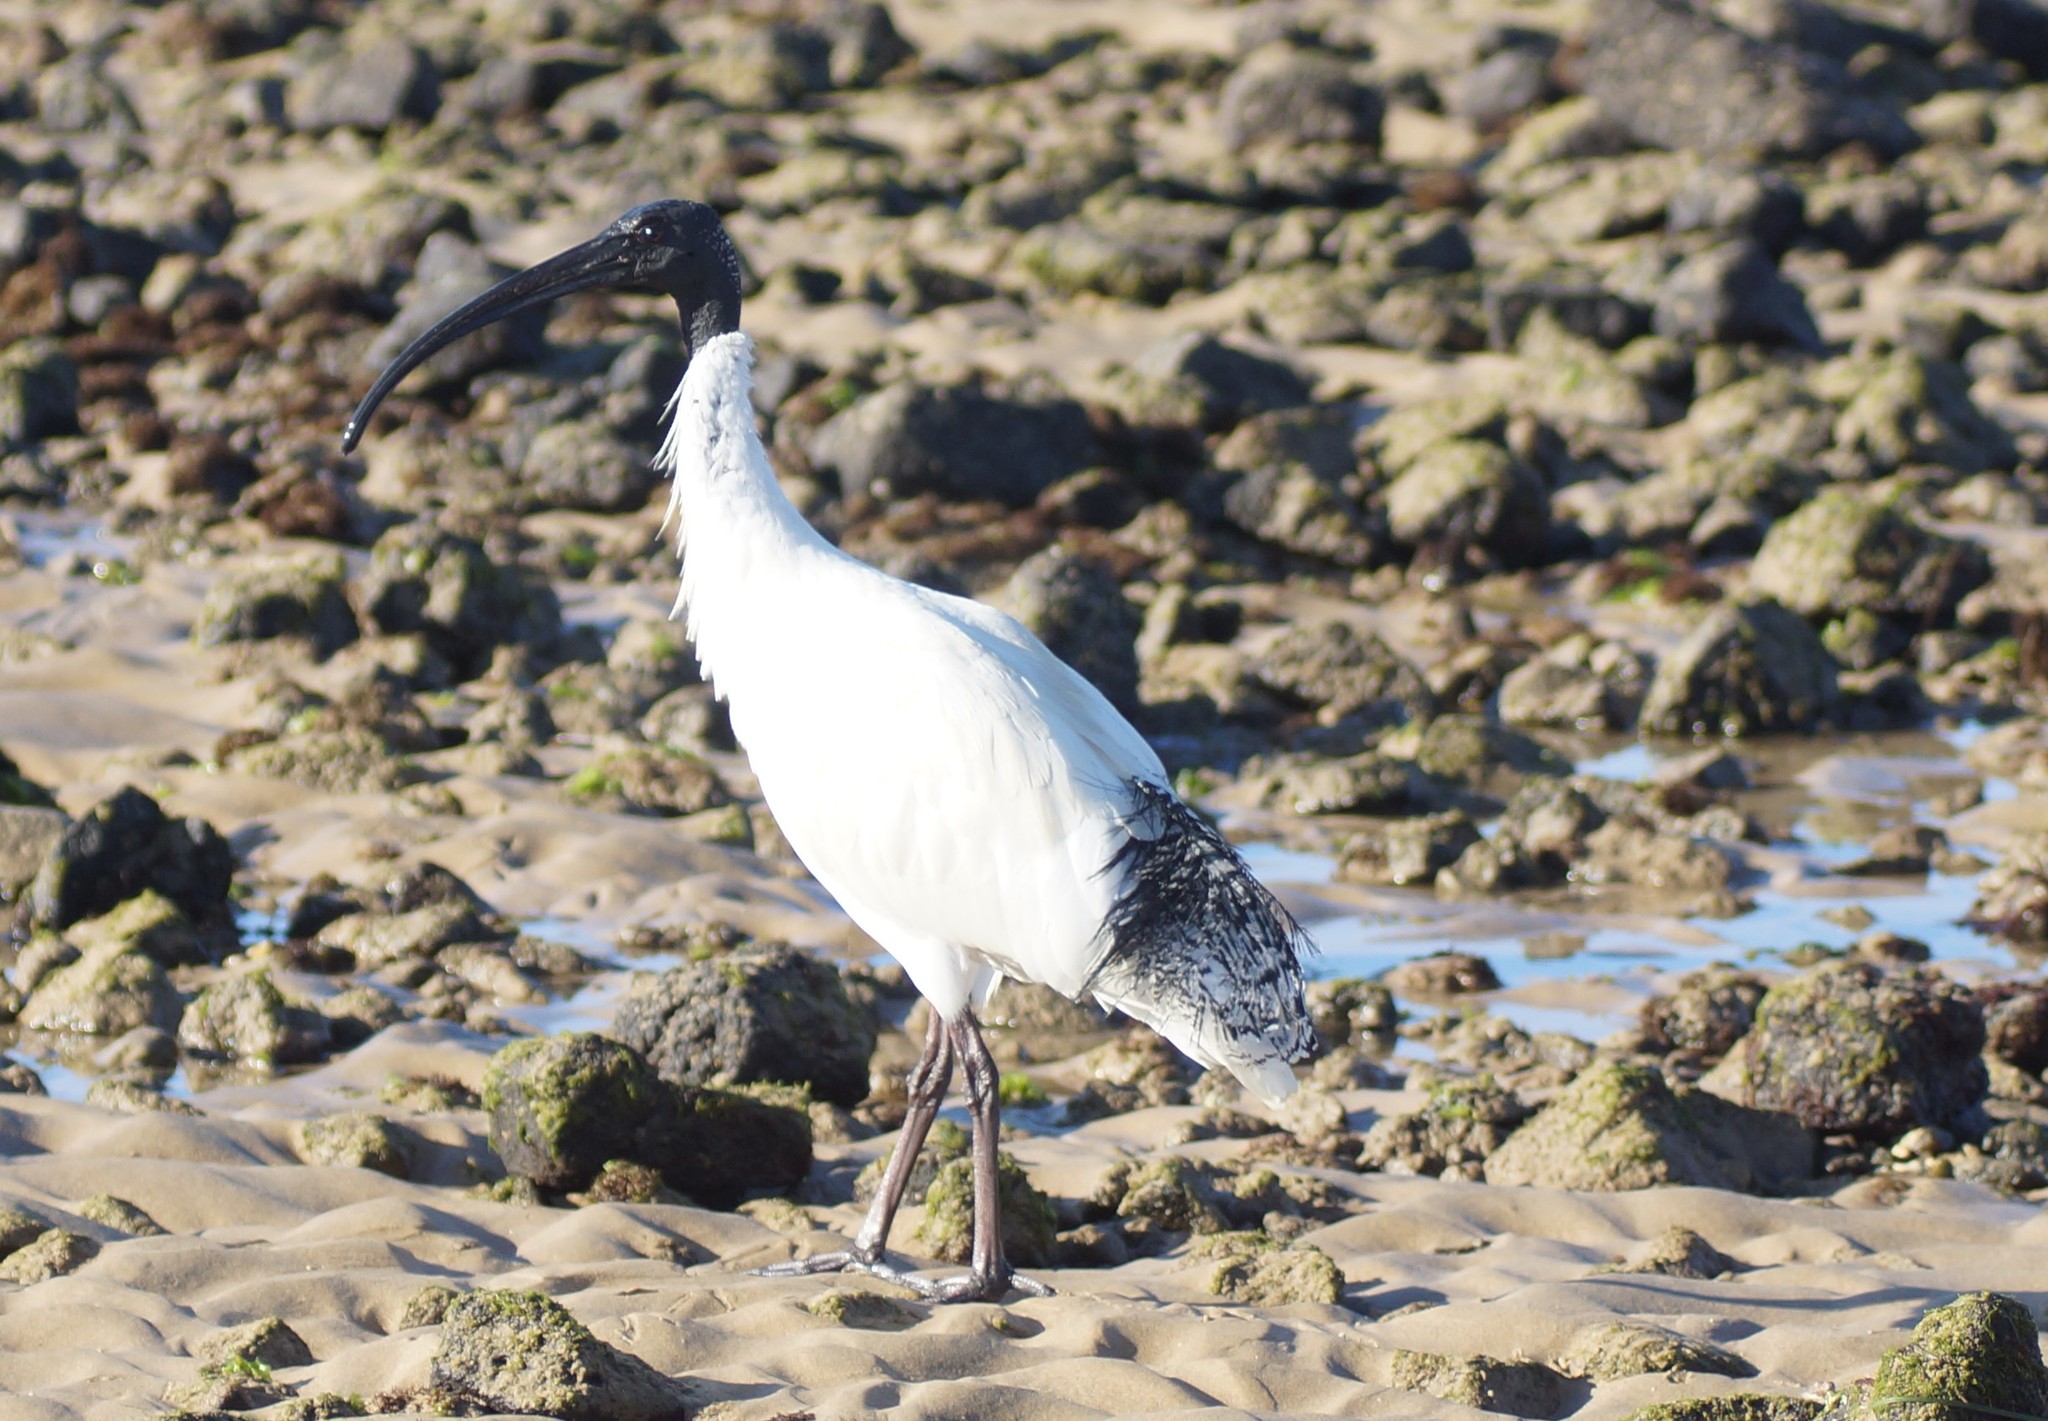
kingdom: Animalia
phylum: Chordata
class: Aves
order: Pelecaniformes
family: Threskiornithidae
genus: Threskiornis
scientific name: Threskiornis molucca
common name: Australian white ibis
